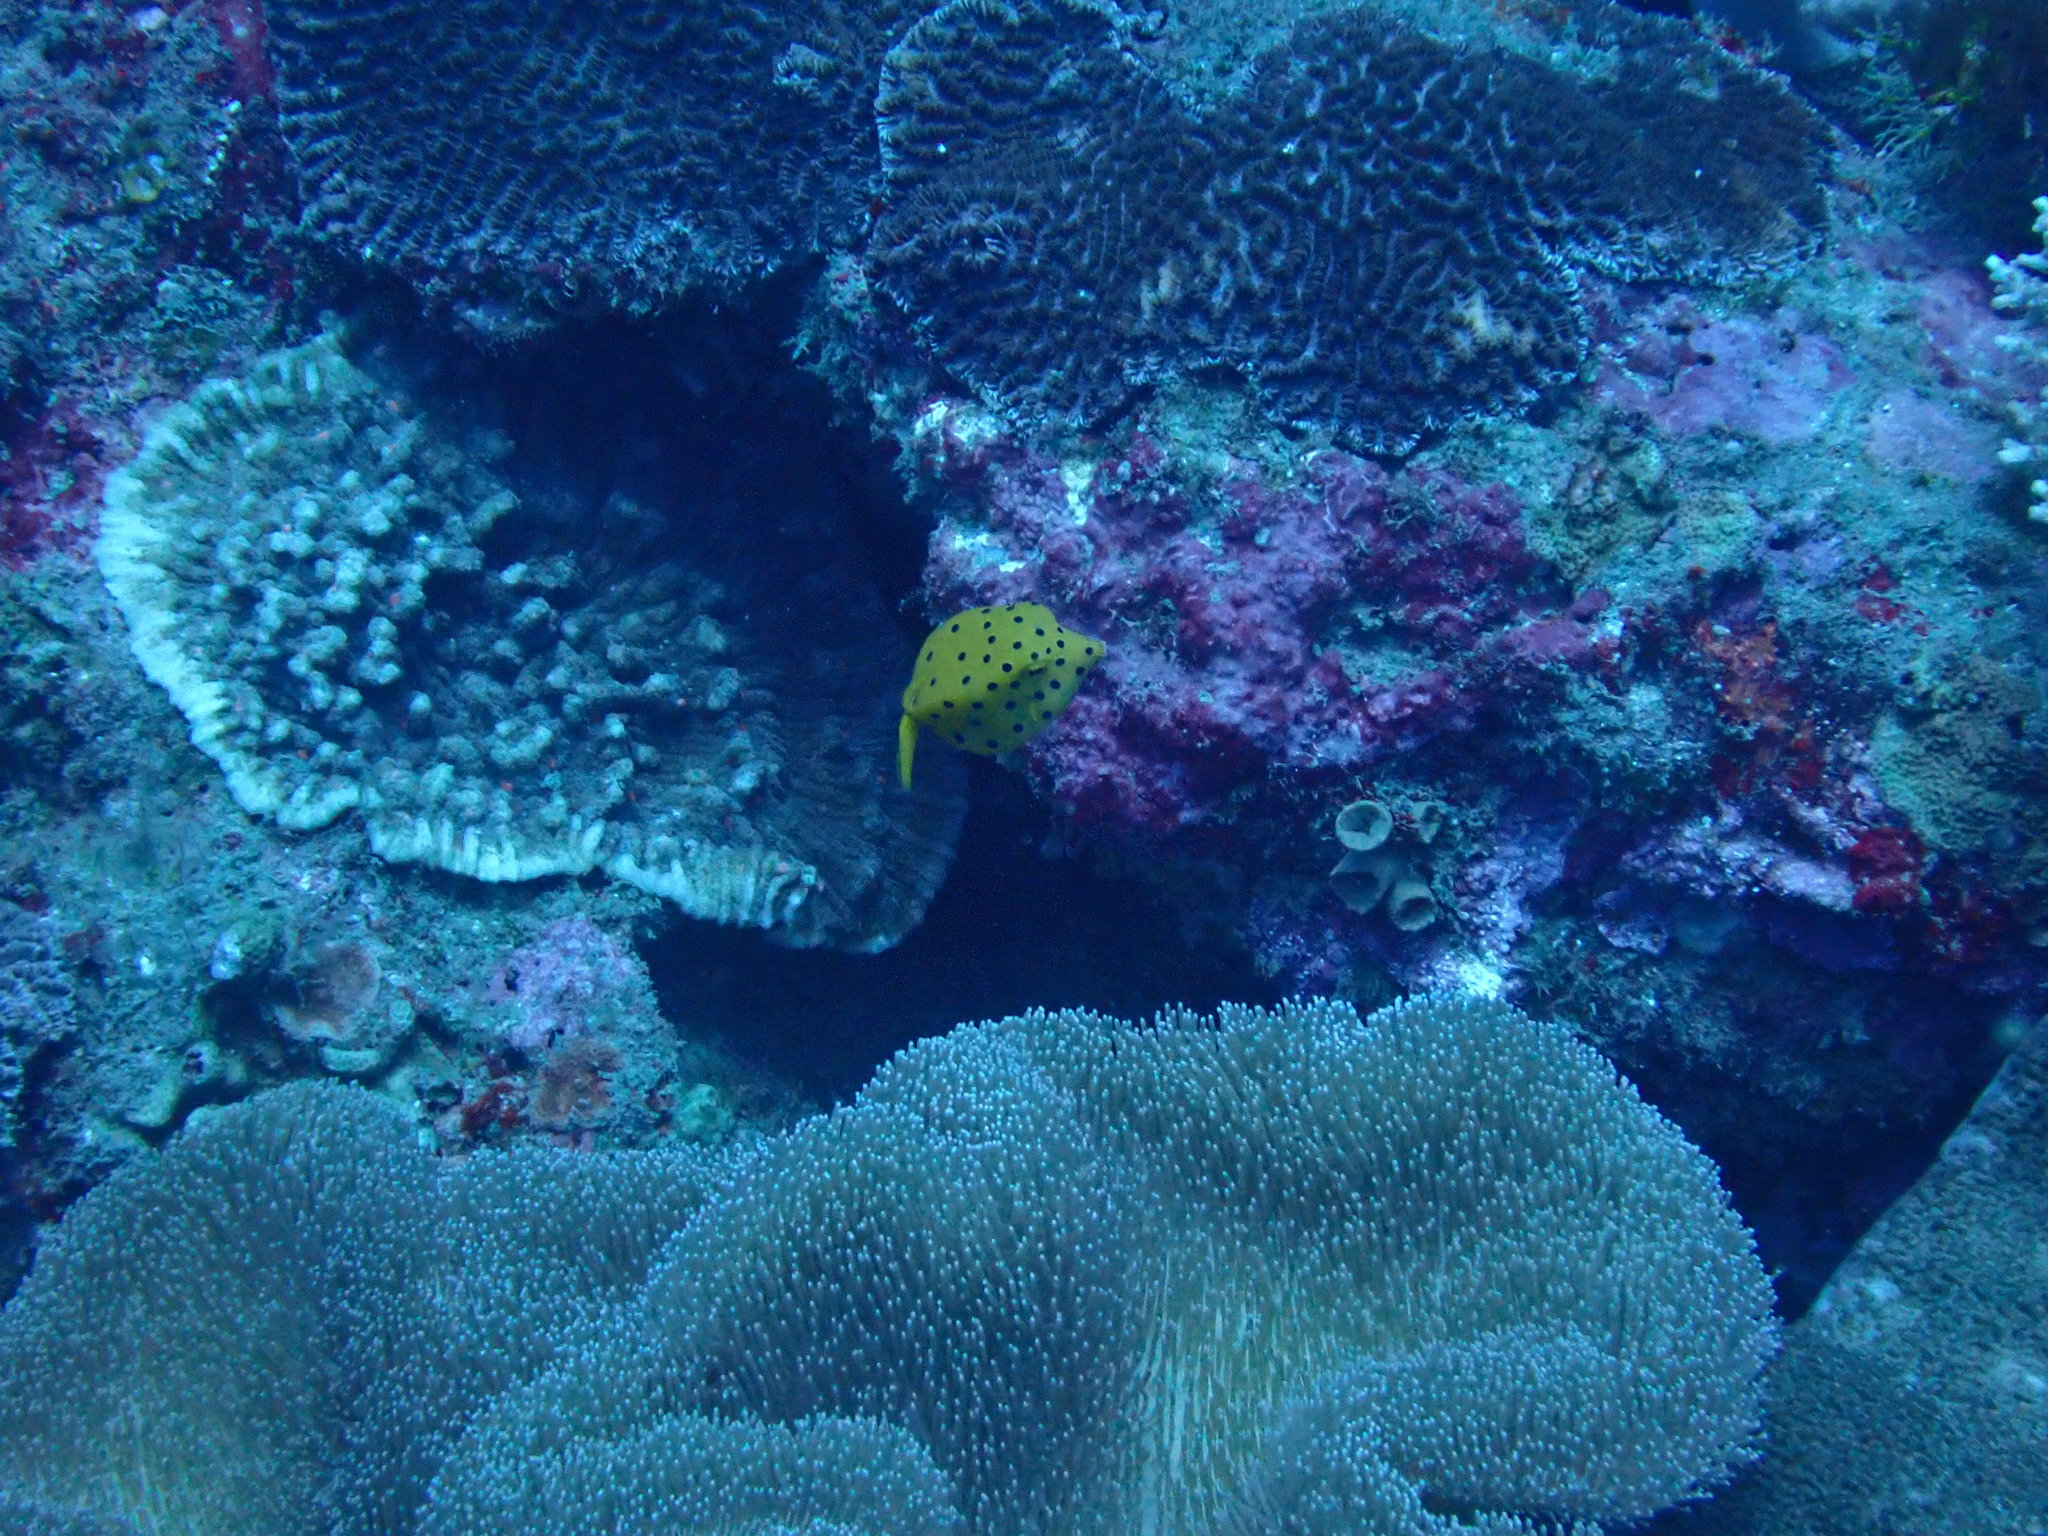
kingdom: Animalia
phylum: Chordata
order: Tetraodontiformes
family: Ostraciidae
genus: Ostracion
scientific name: Ostracion cubicus
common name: Cube trunkfish
